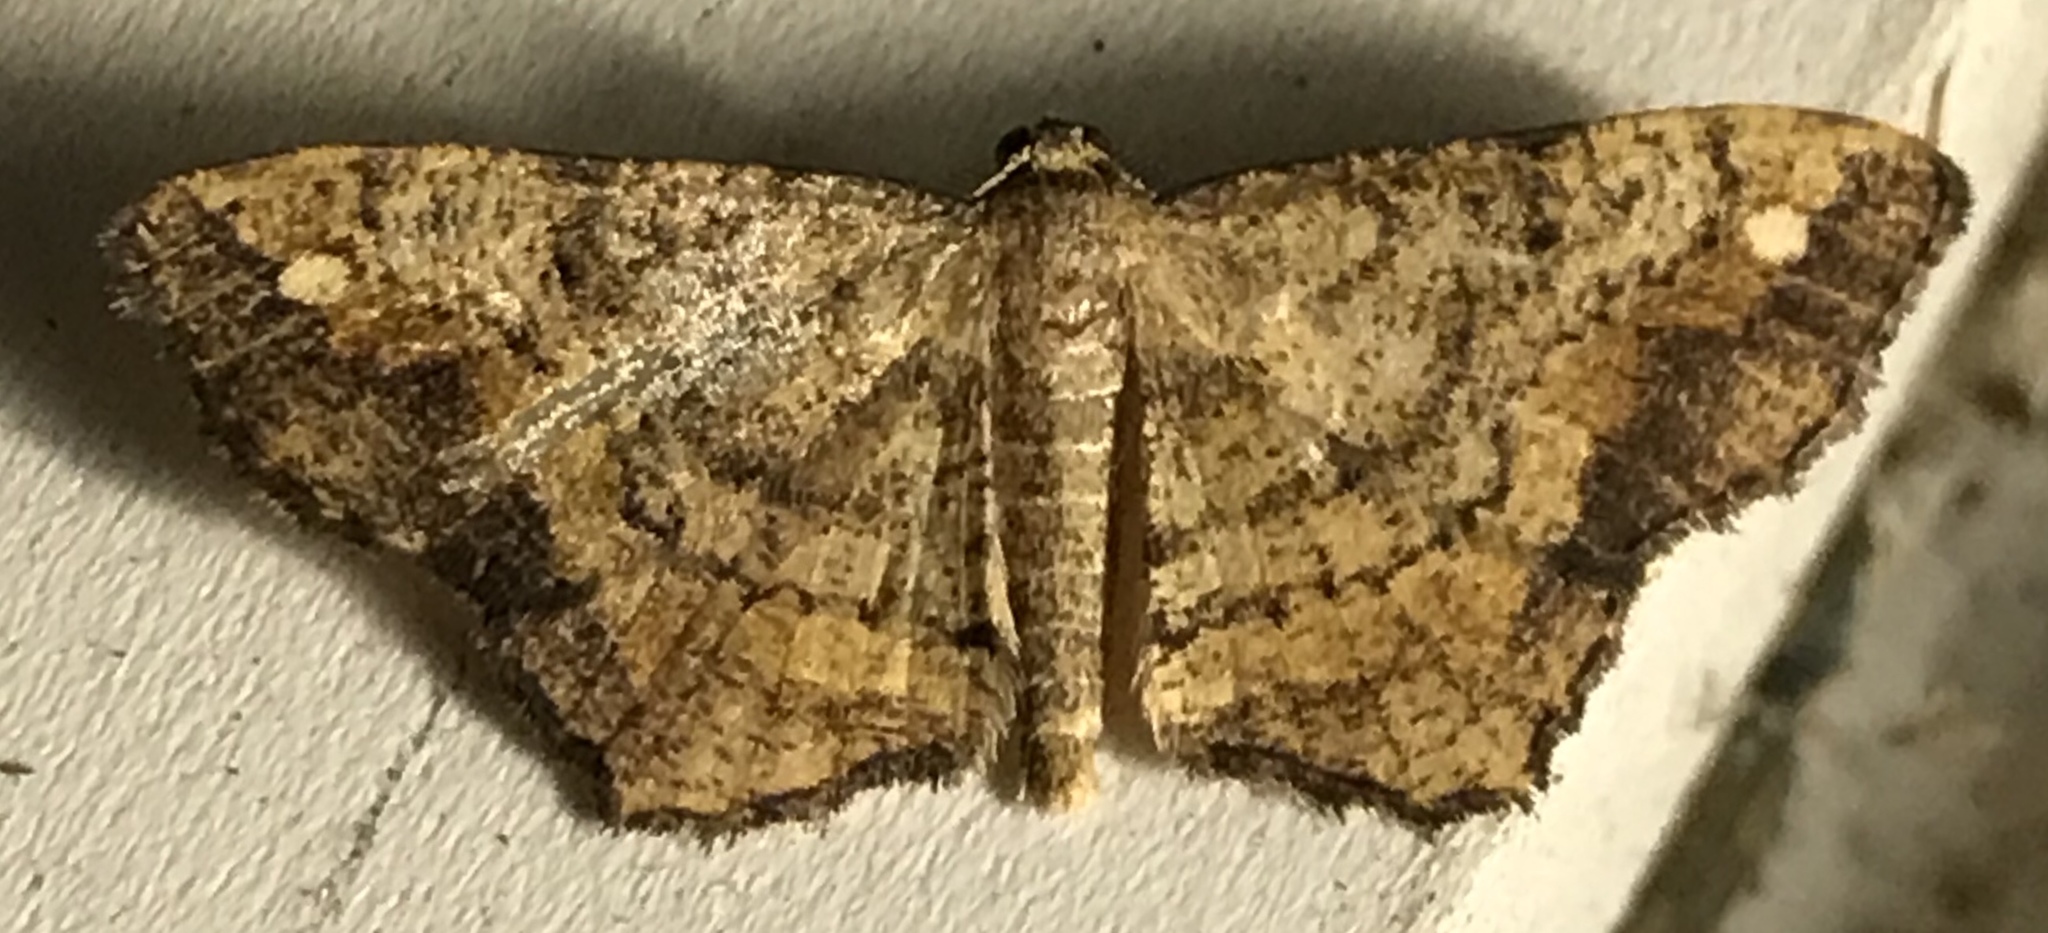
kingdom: Animalia
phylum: Arthropoda
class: Insecta
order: Lepidoptera
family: Geometridae
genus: Hypagyrtis
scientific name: Hypagyrtis unipunctata
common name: One-spotted variant
